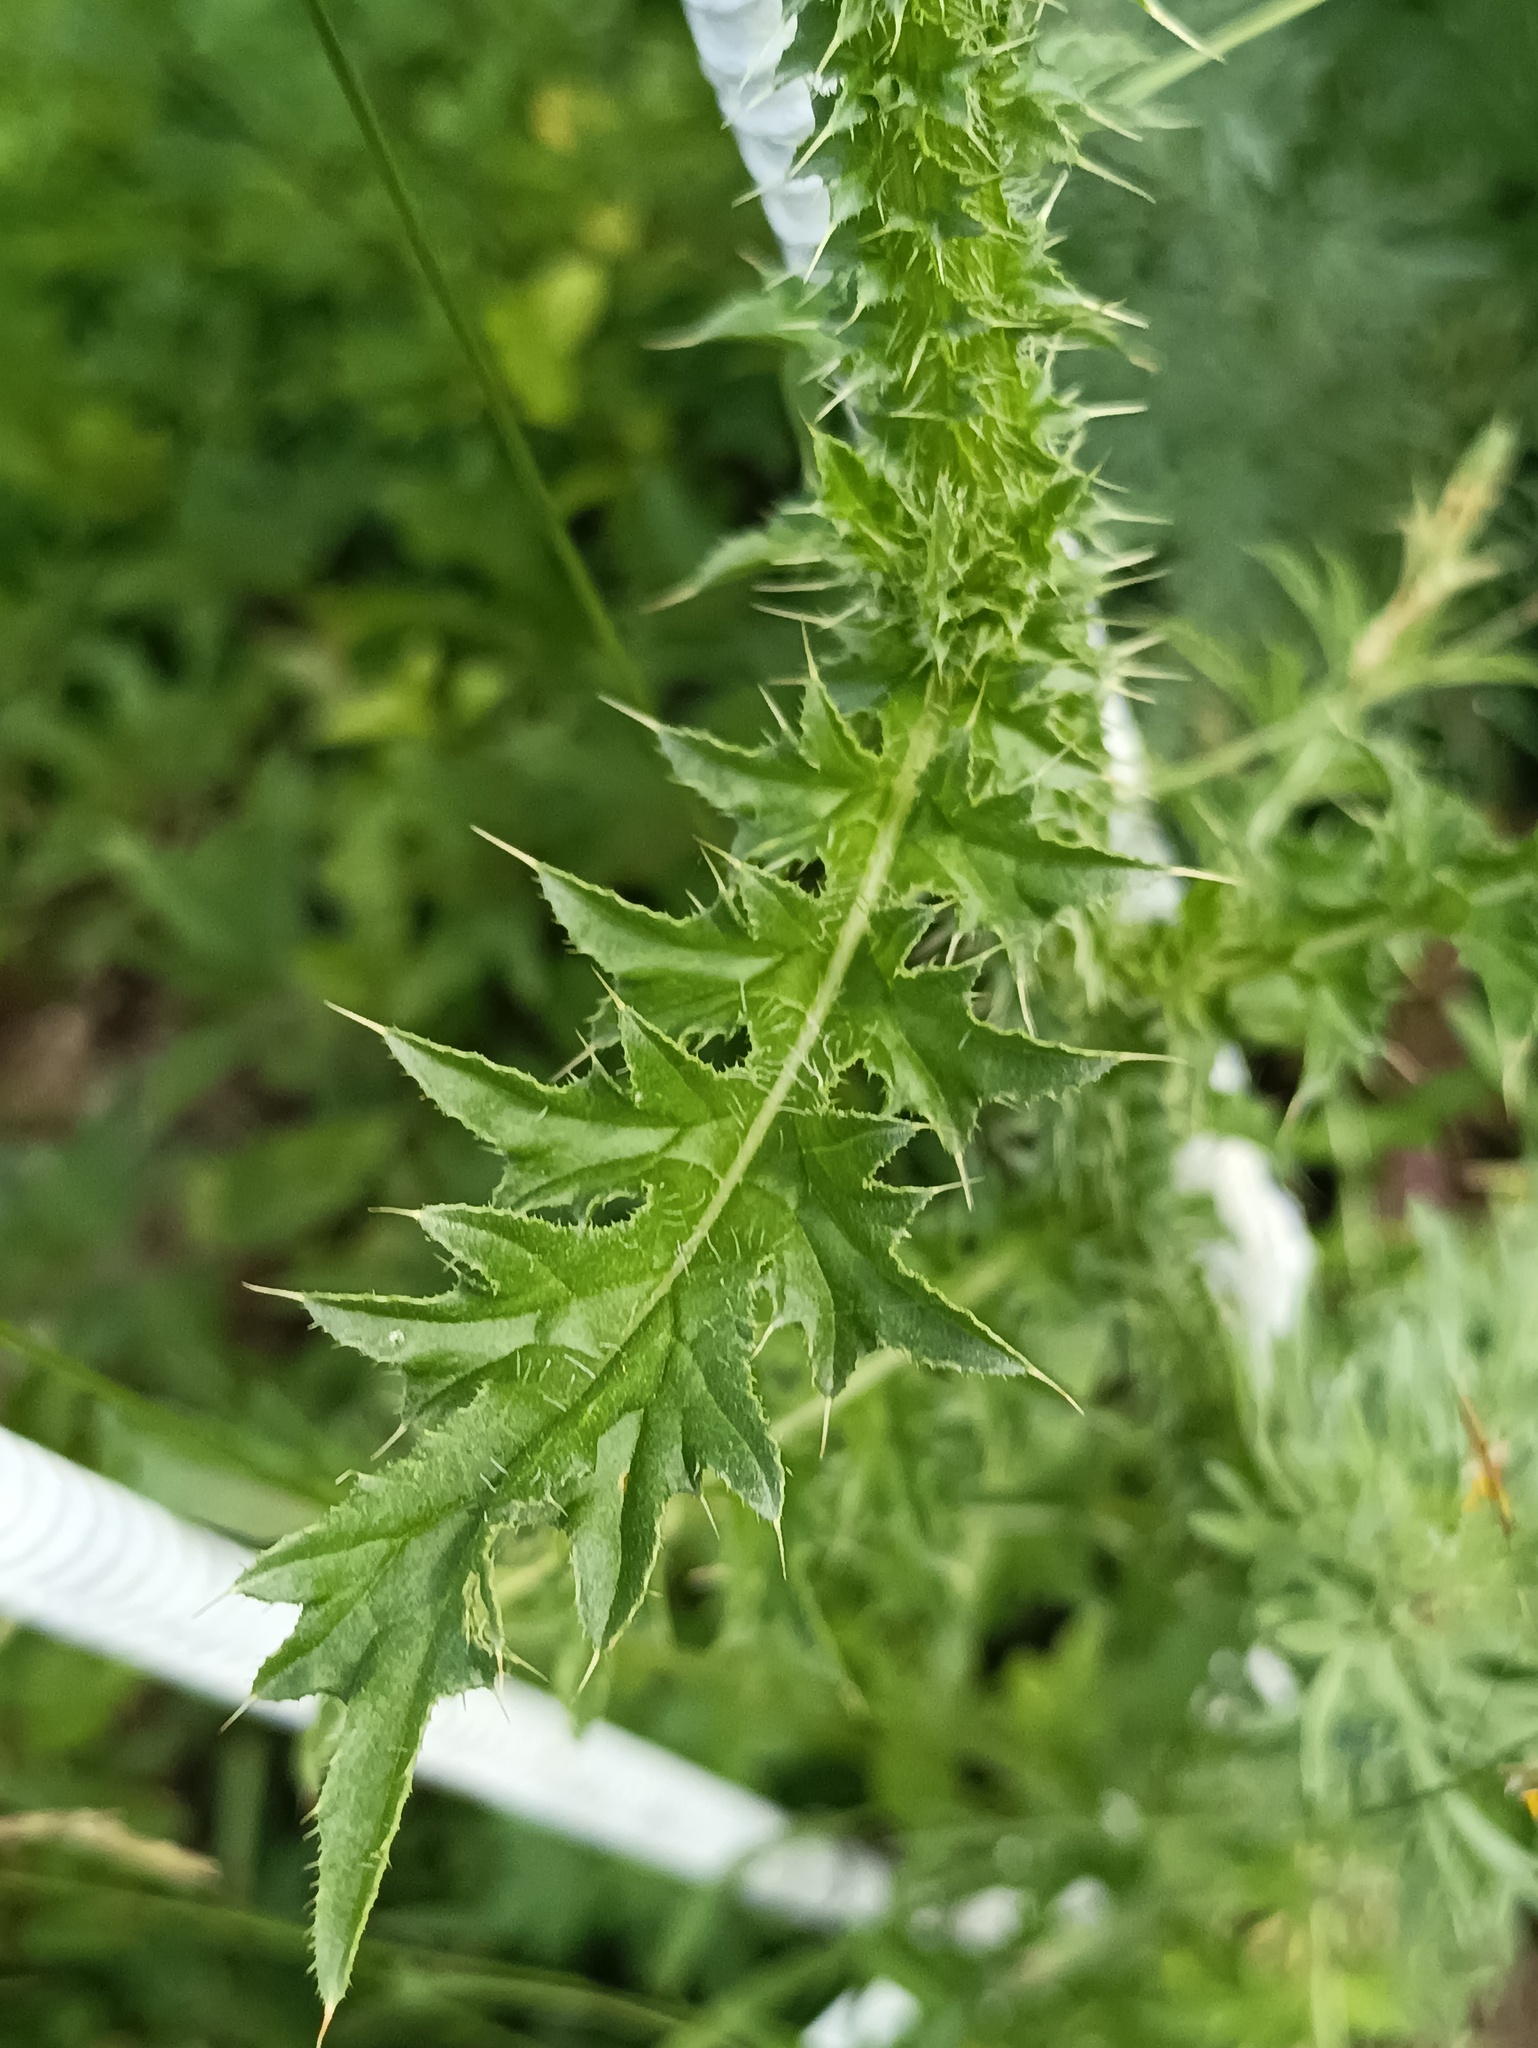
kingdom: Plantae
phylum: Tracheophyta
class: Magnoliopsida
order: Asterales
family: Asteraceae
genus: Carduus
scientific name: Carduus acanthoides
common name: Plumeless thistle
